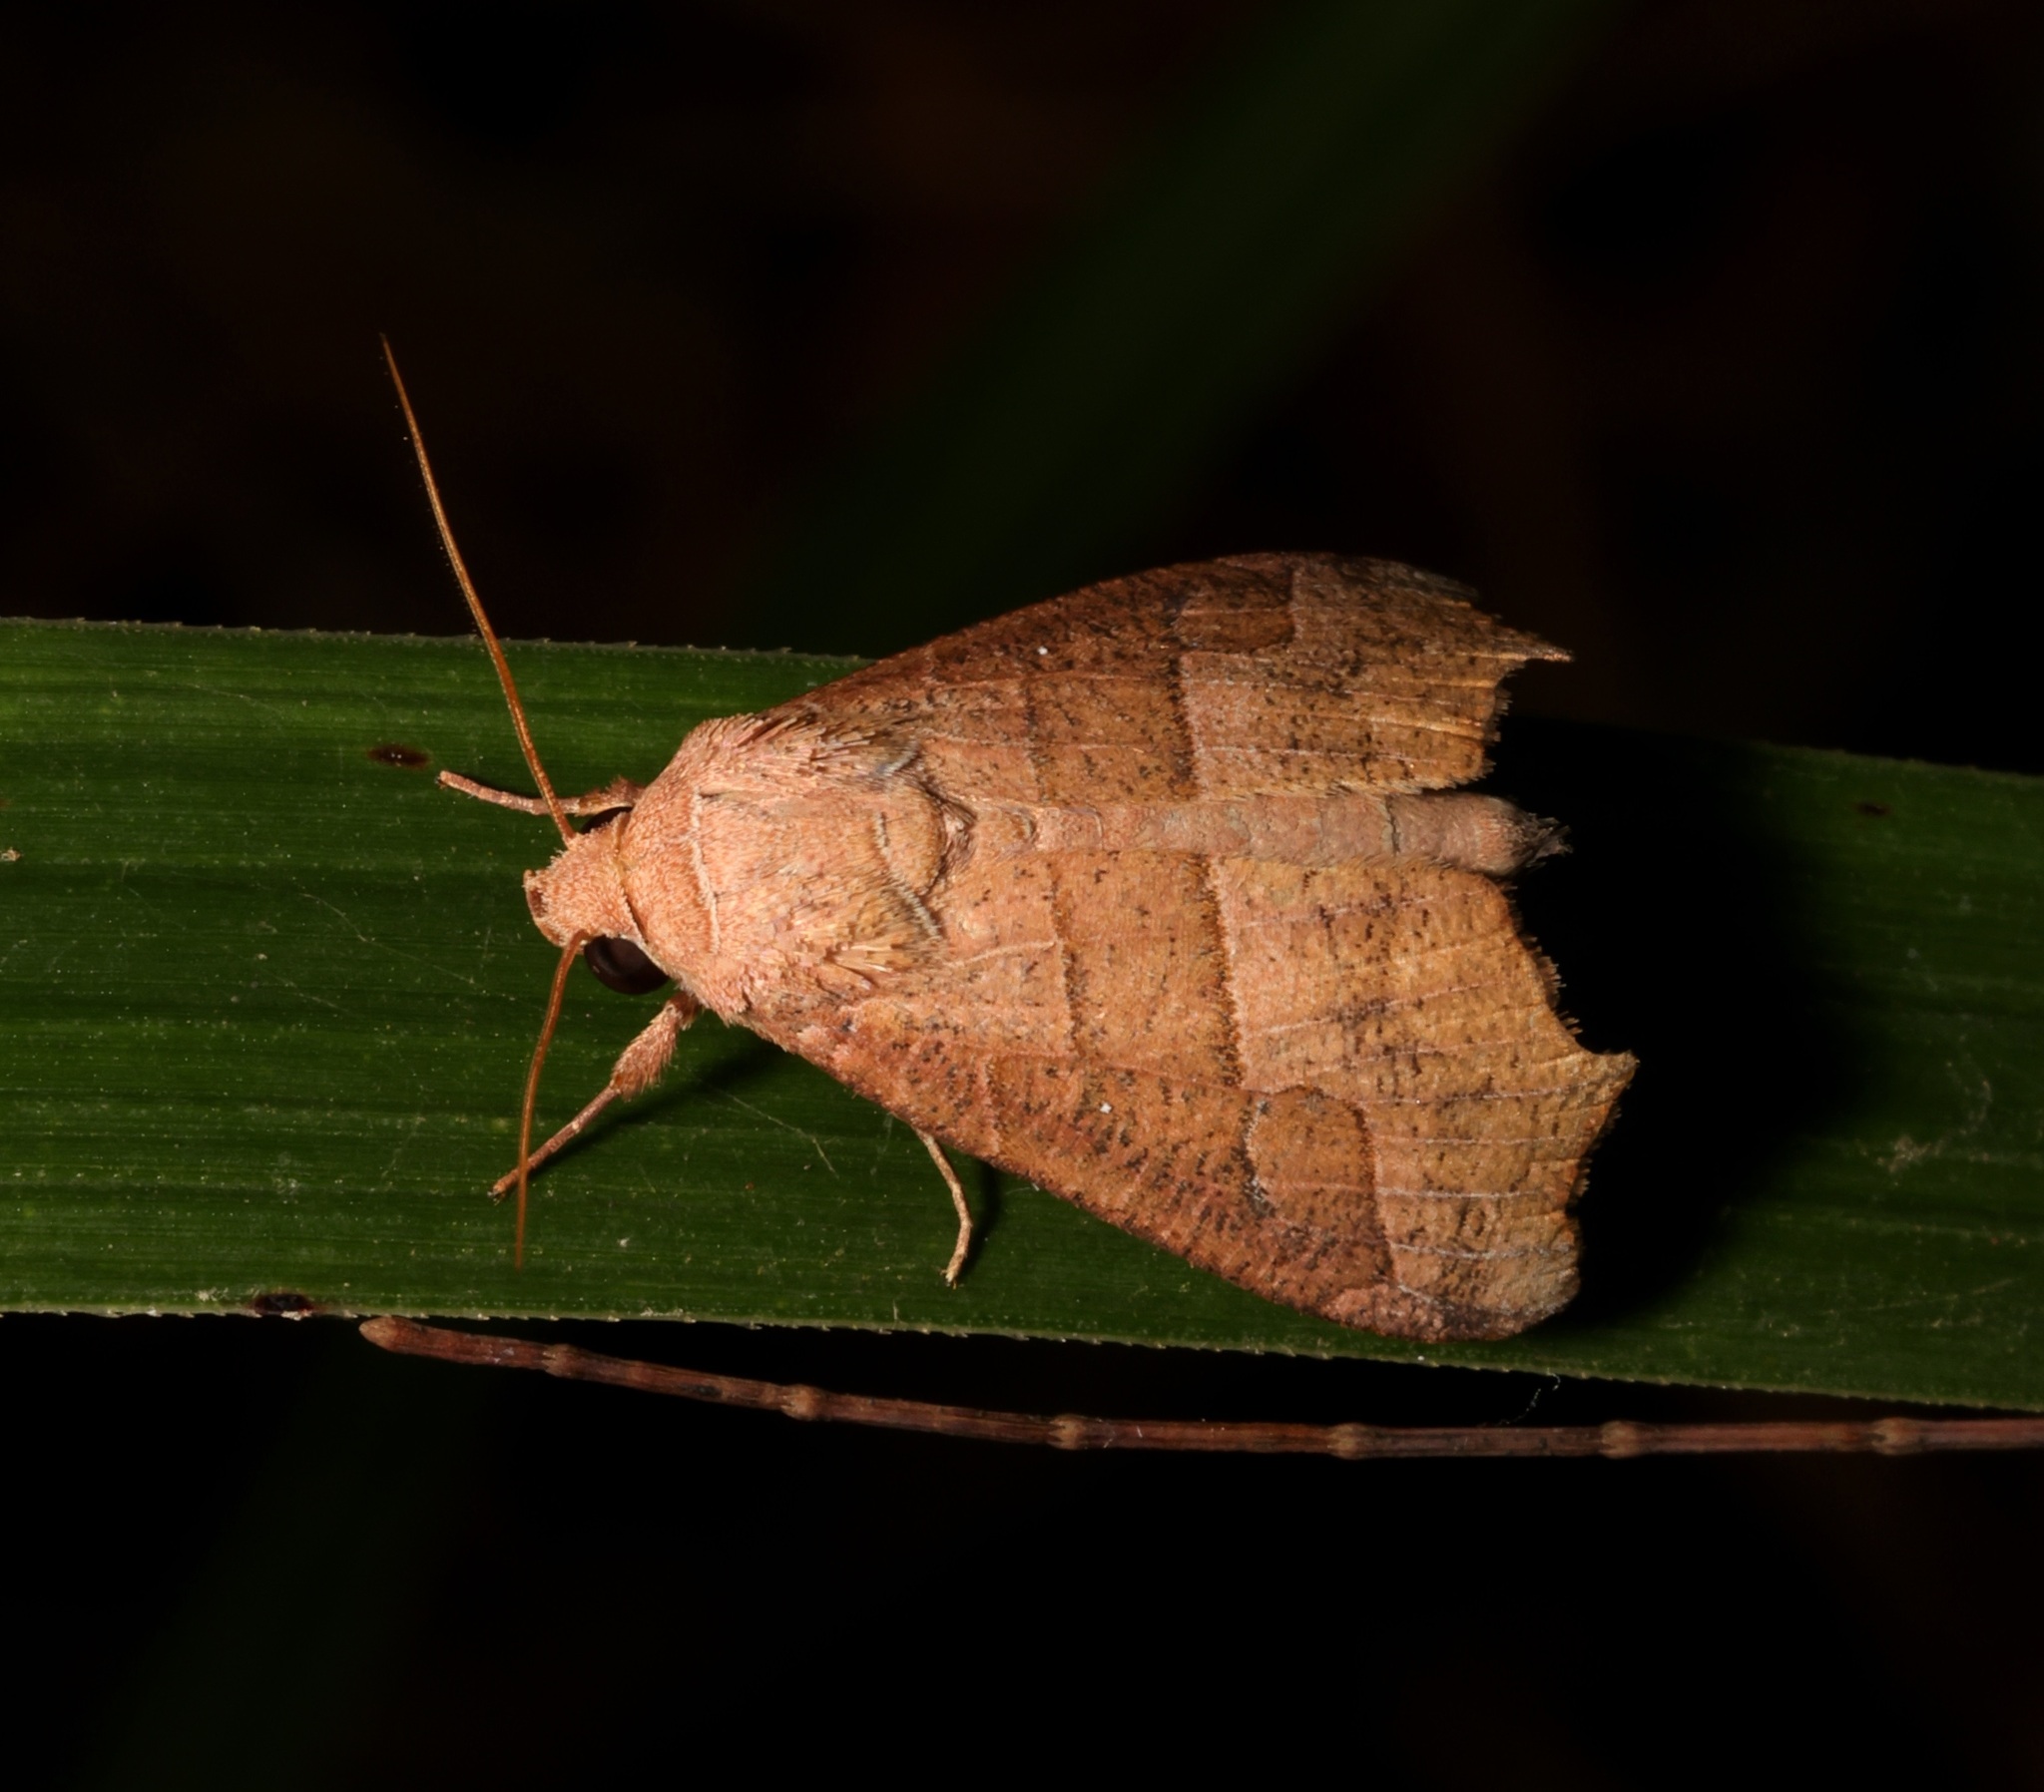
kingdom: Animalia
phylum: Arthropoda
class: Insecta
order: Lepidoptera
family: Erebidae
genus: Gonitis
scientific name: Gonitis mesogona
